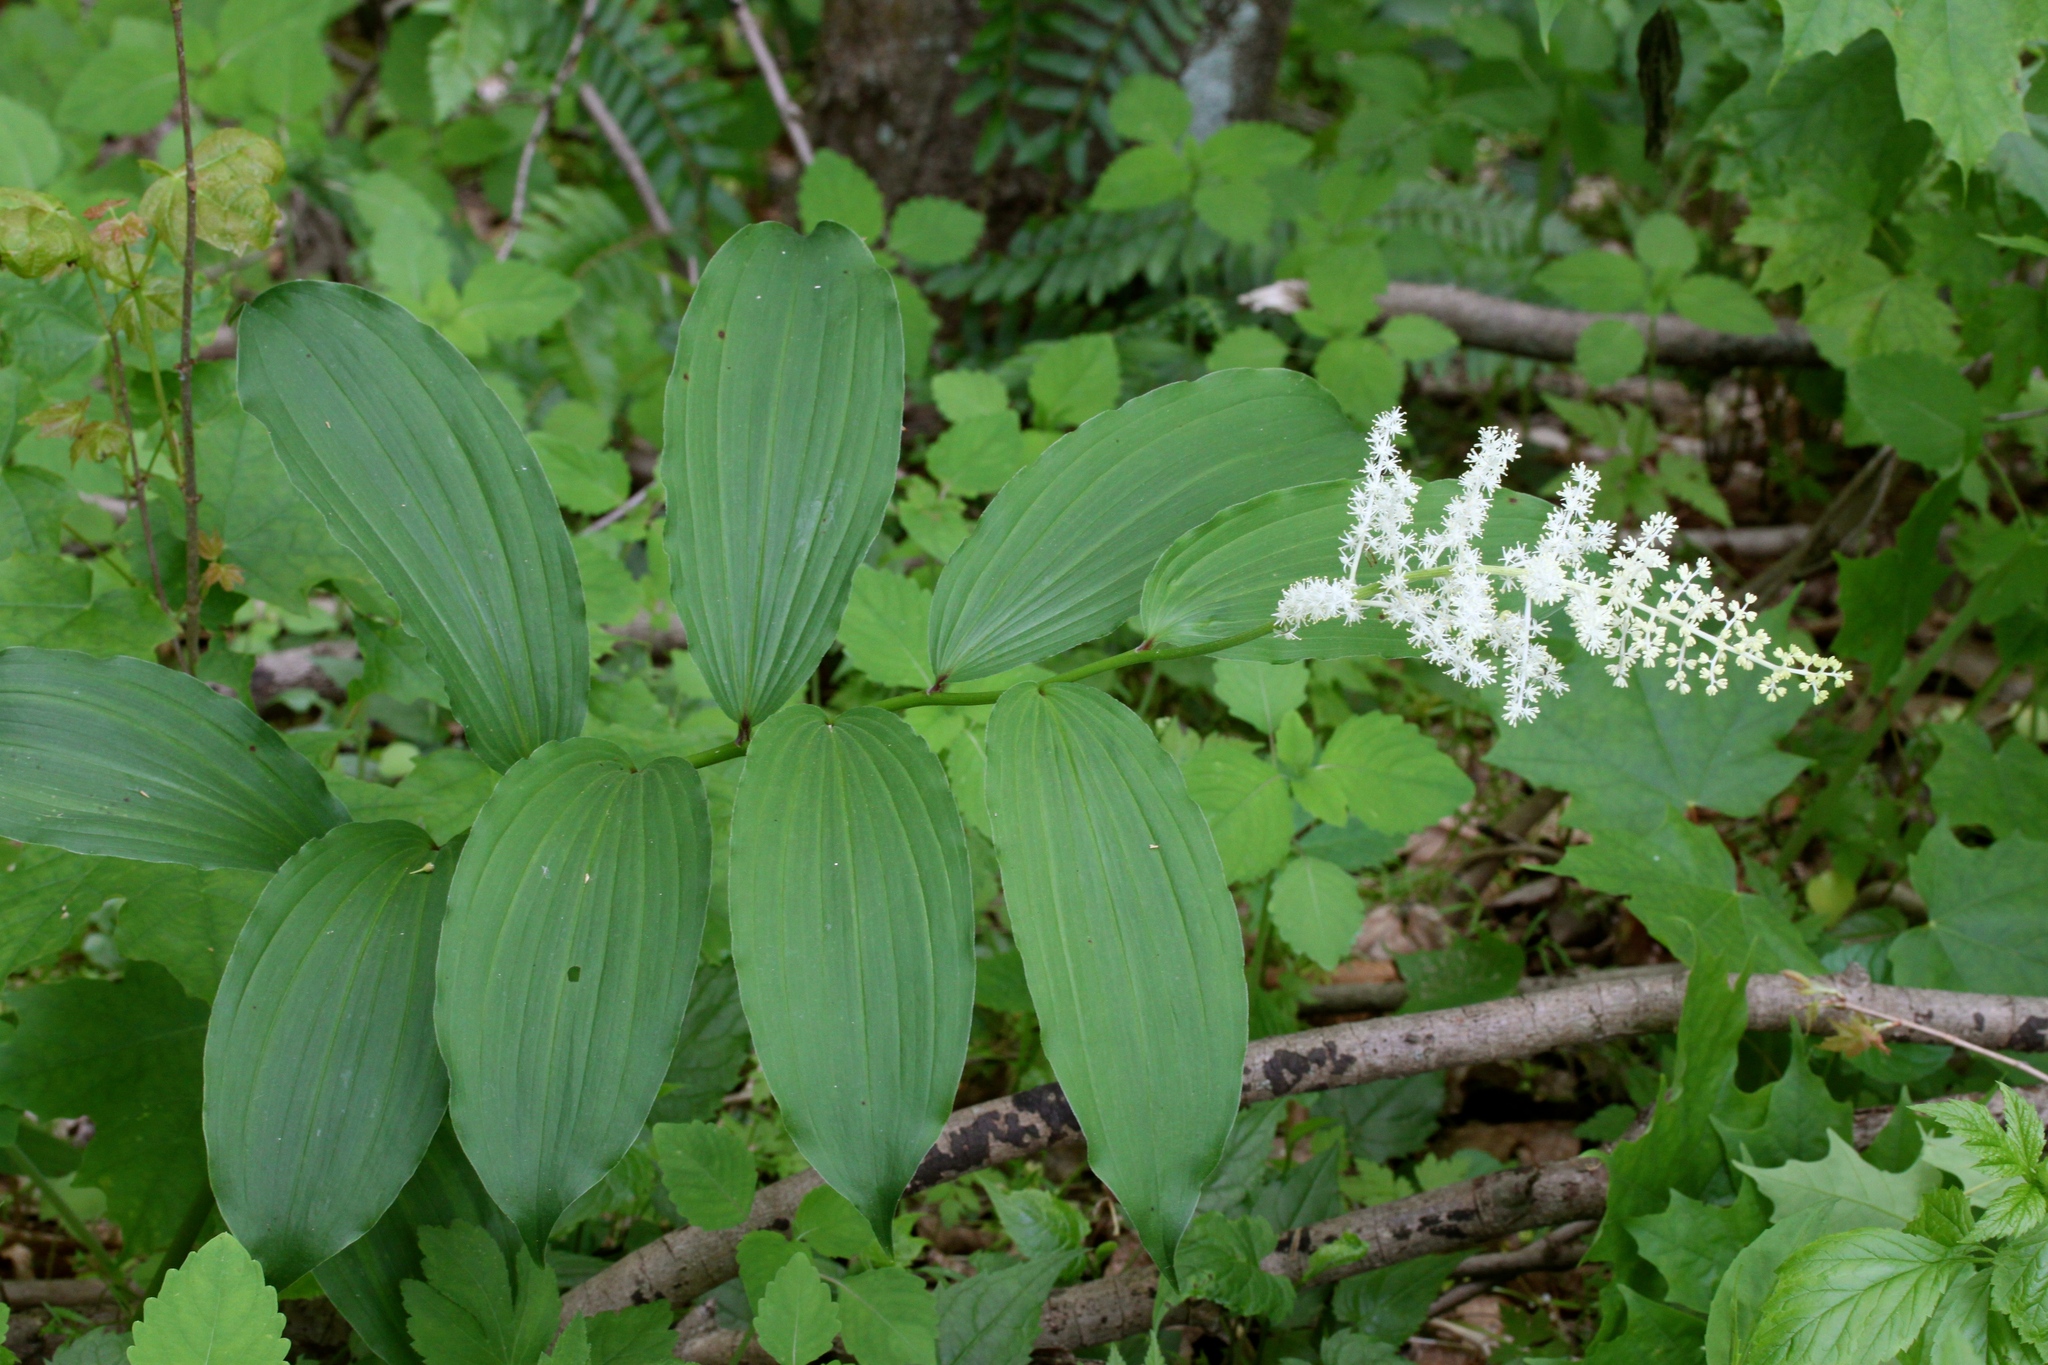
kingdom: Plantae
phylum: Tracheophyta
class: Liliopsida
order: Asparagales
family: Asparagaceae
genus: Maianthemum
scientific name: Maianthemum racemosum
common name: False spikenard
